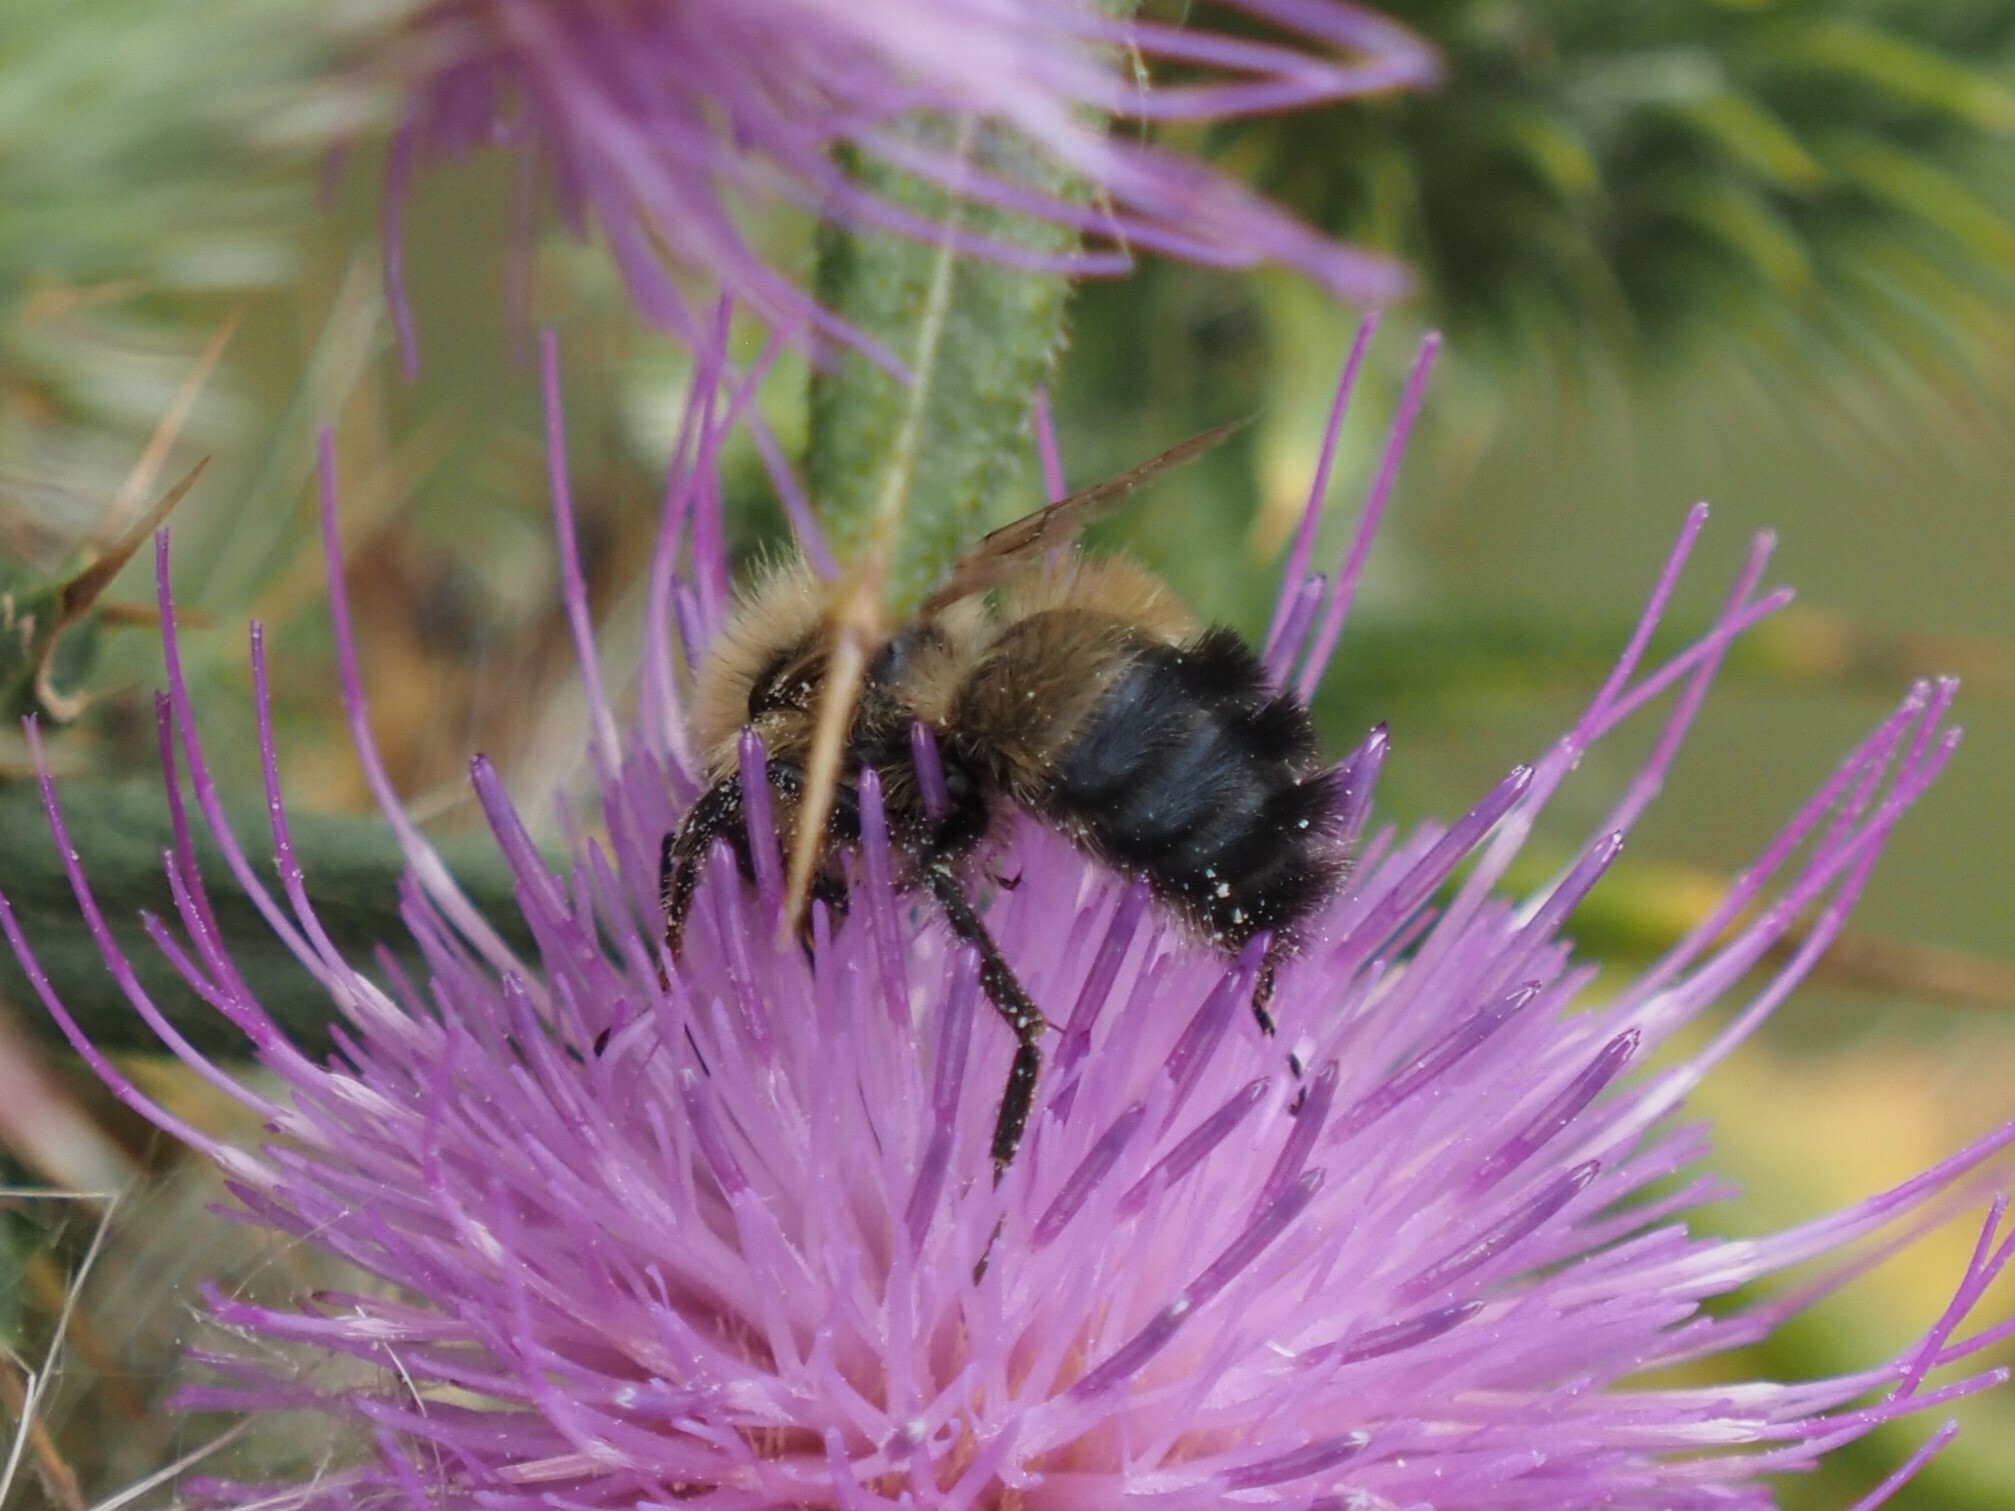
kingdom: Animalia
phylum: Arthropoda
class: Insecta
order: Hymenoptera
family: Apidae
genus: Bombus
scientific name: Bombus vagans
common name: Half-black bumble bee
